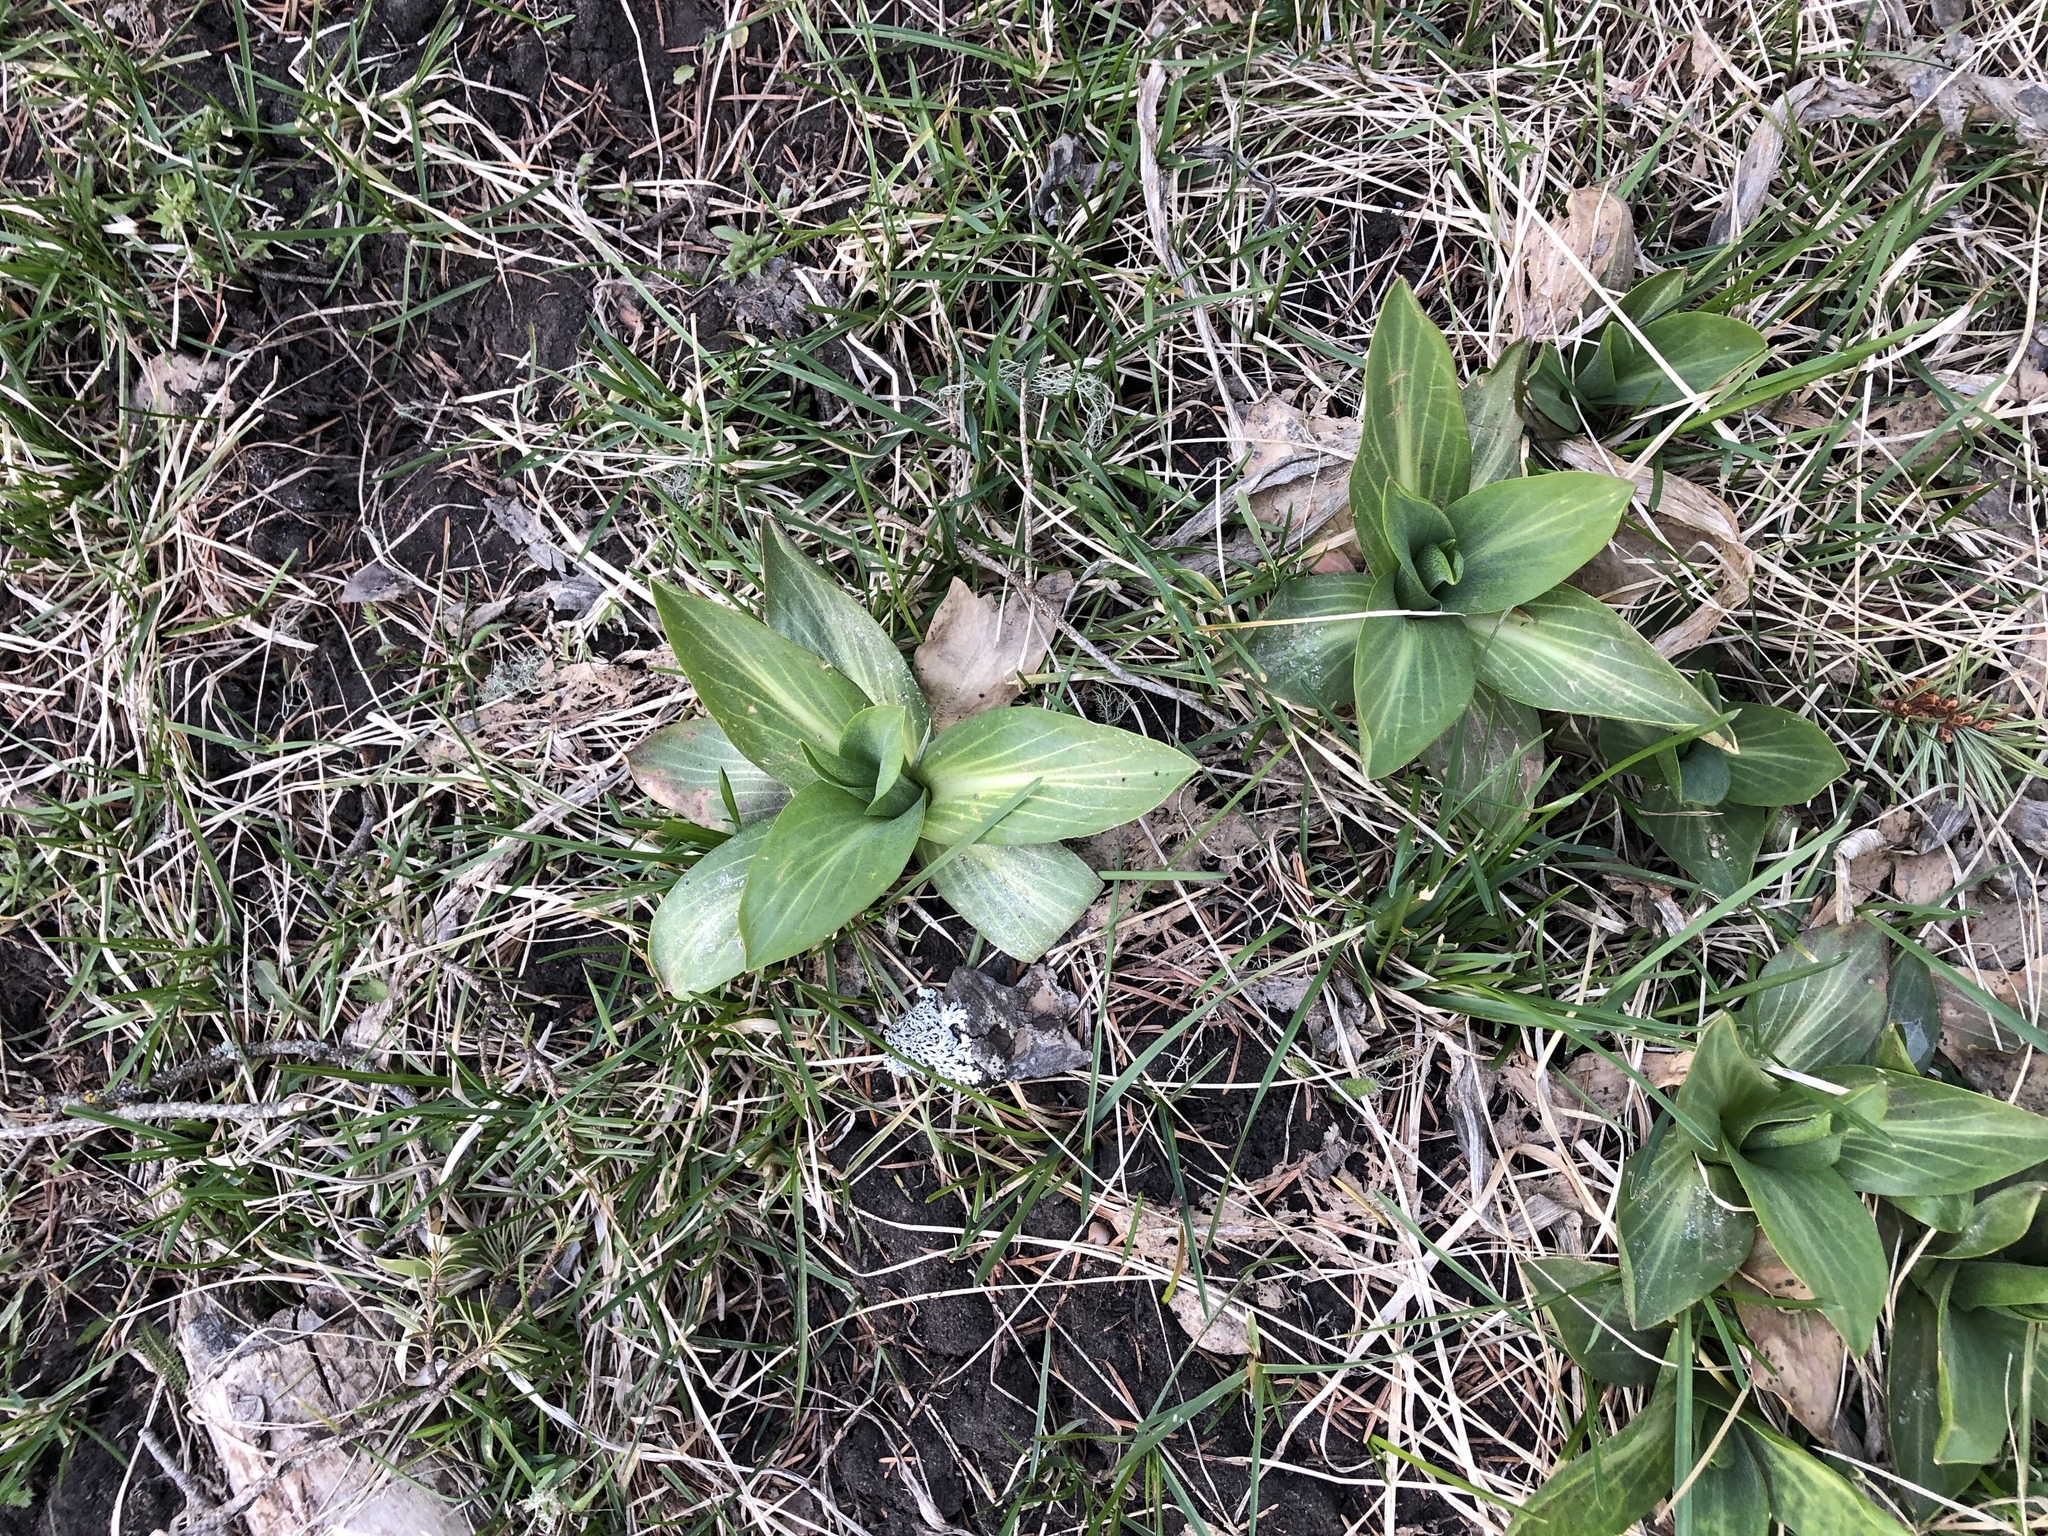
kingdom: Plantae
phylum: Tracheophyta
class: Magnoliopsida
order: Asterales
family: Asteraceae
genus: Hymenoxys
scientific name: Hymenoxys hoopesii
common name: Orange-sneezeweed
